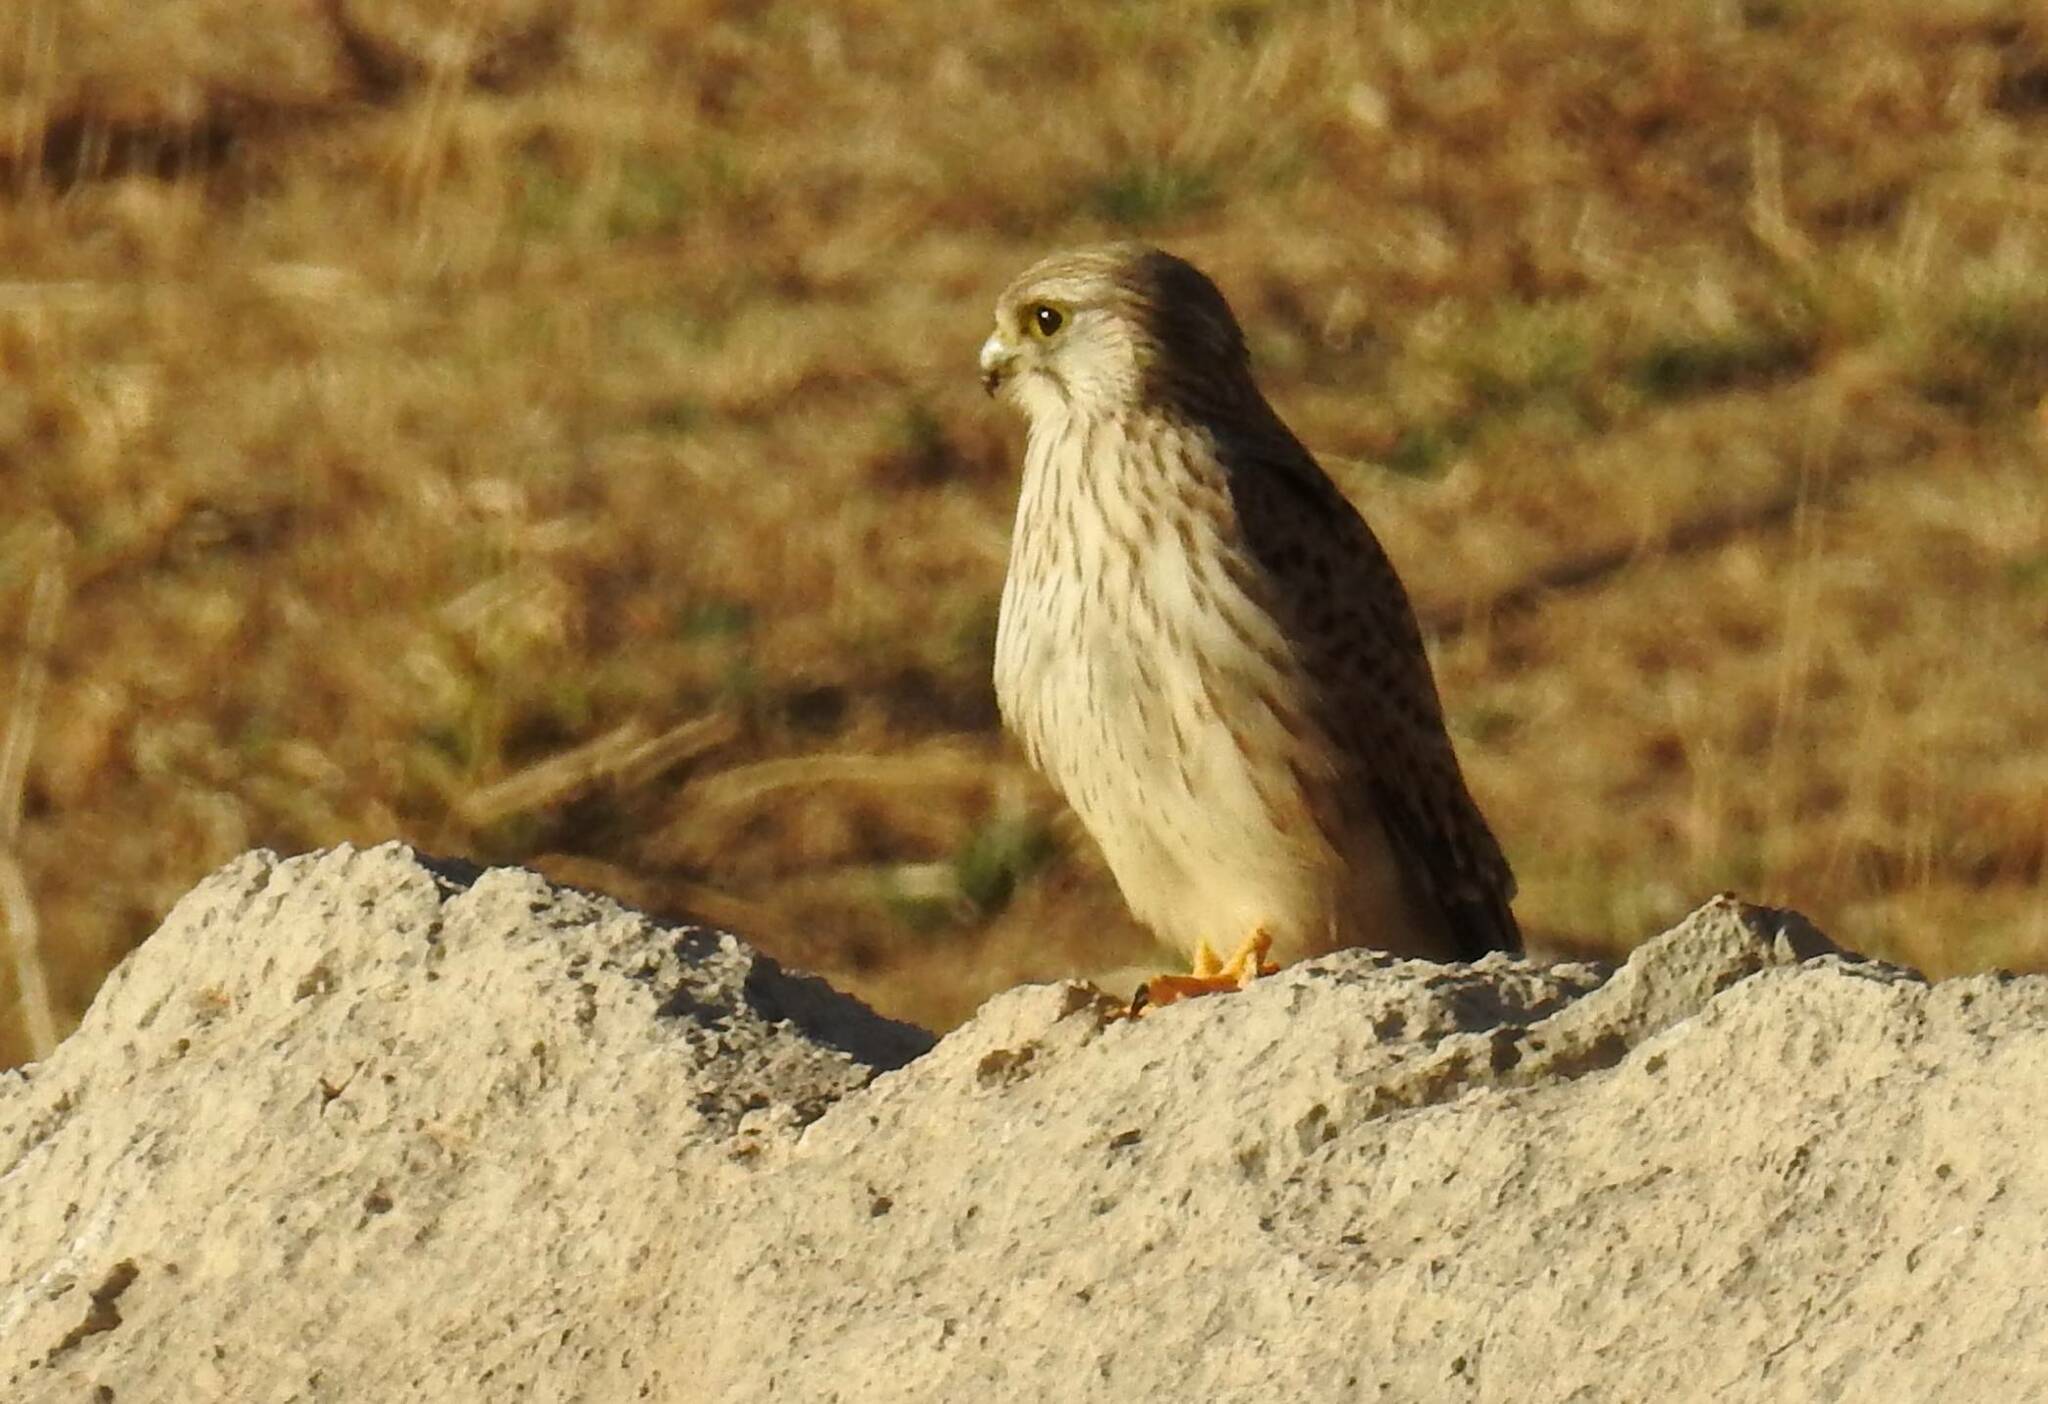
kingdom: Animalia
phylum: Chordata
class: Aves
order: Falconiformes
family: Falconidae
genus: Falco
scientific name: Falco tinnunculus
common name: Common kestrel
